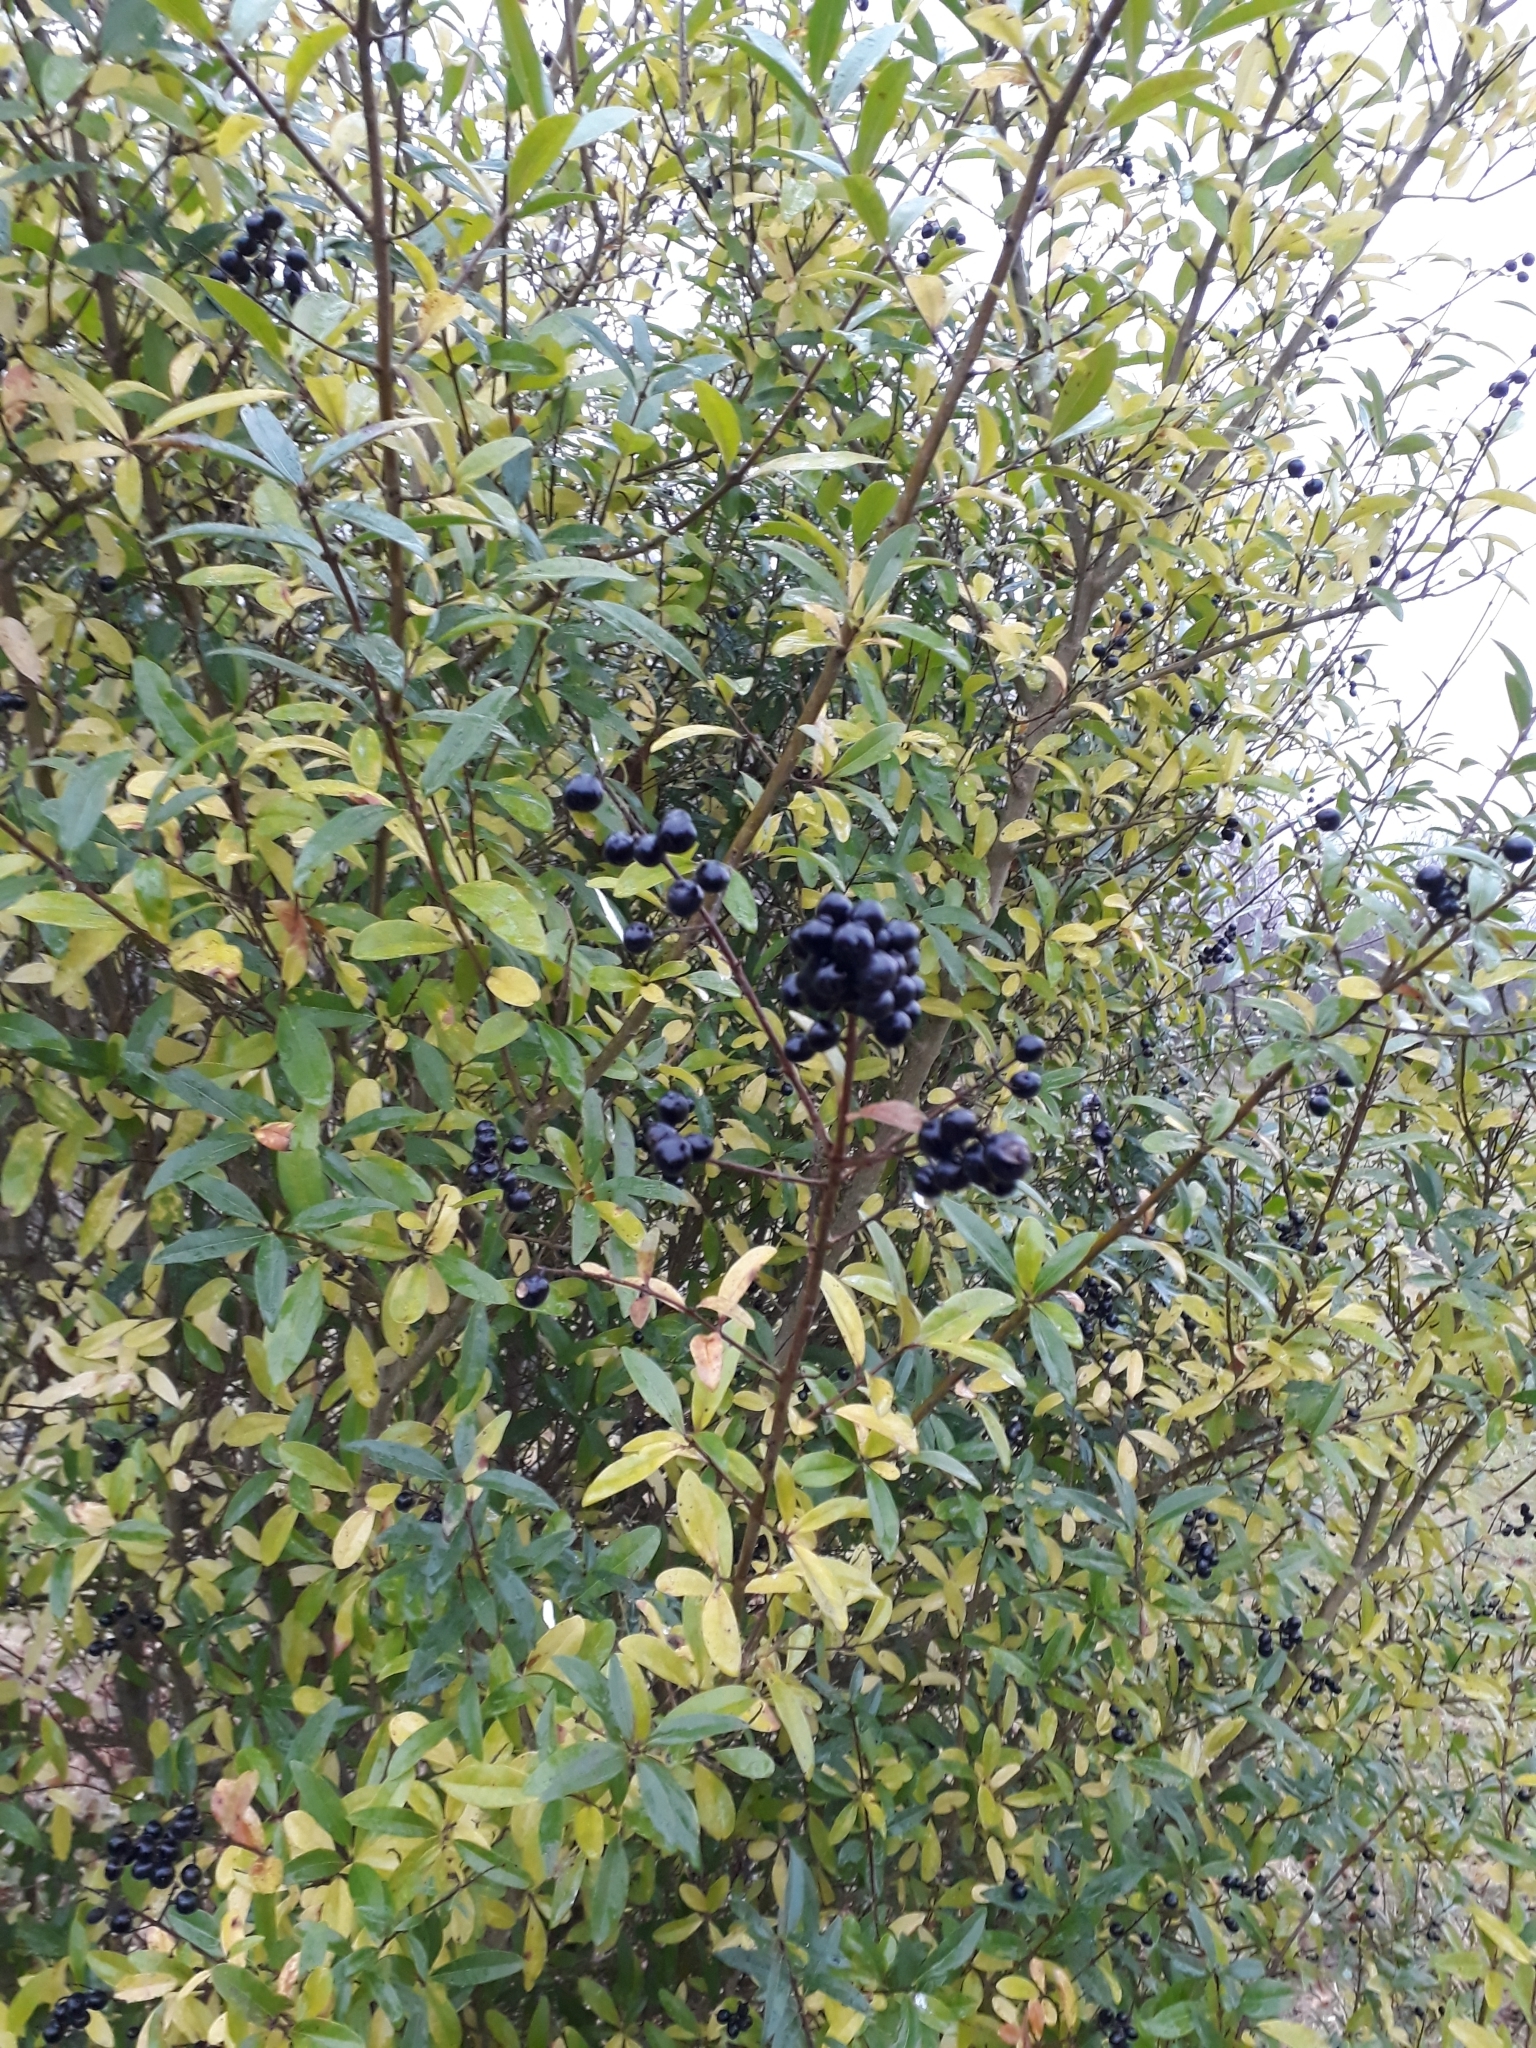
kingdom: Plantae
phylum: Tracheophyta
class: Magnoliopsida
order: Lamiales
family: Oleaceae
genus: Ligustrum
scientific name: Ligustrum vulgare
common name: Wild privet
